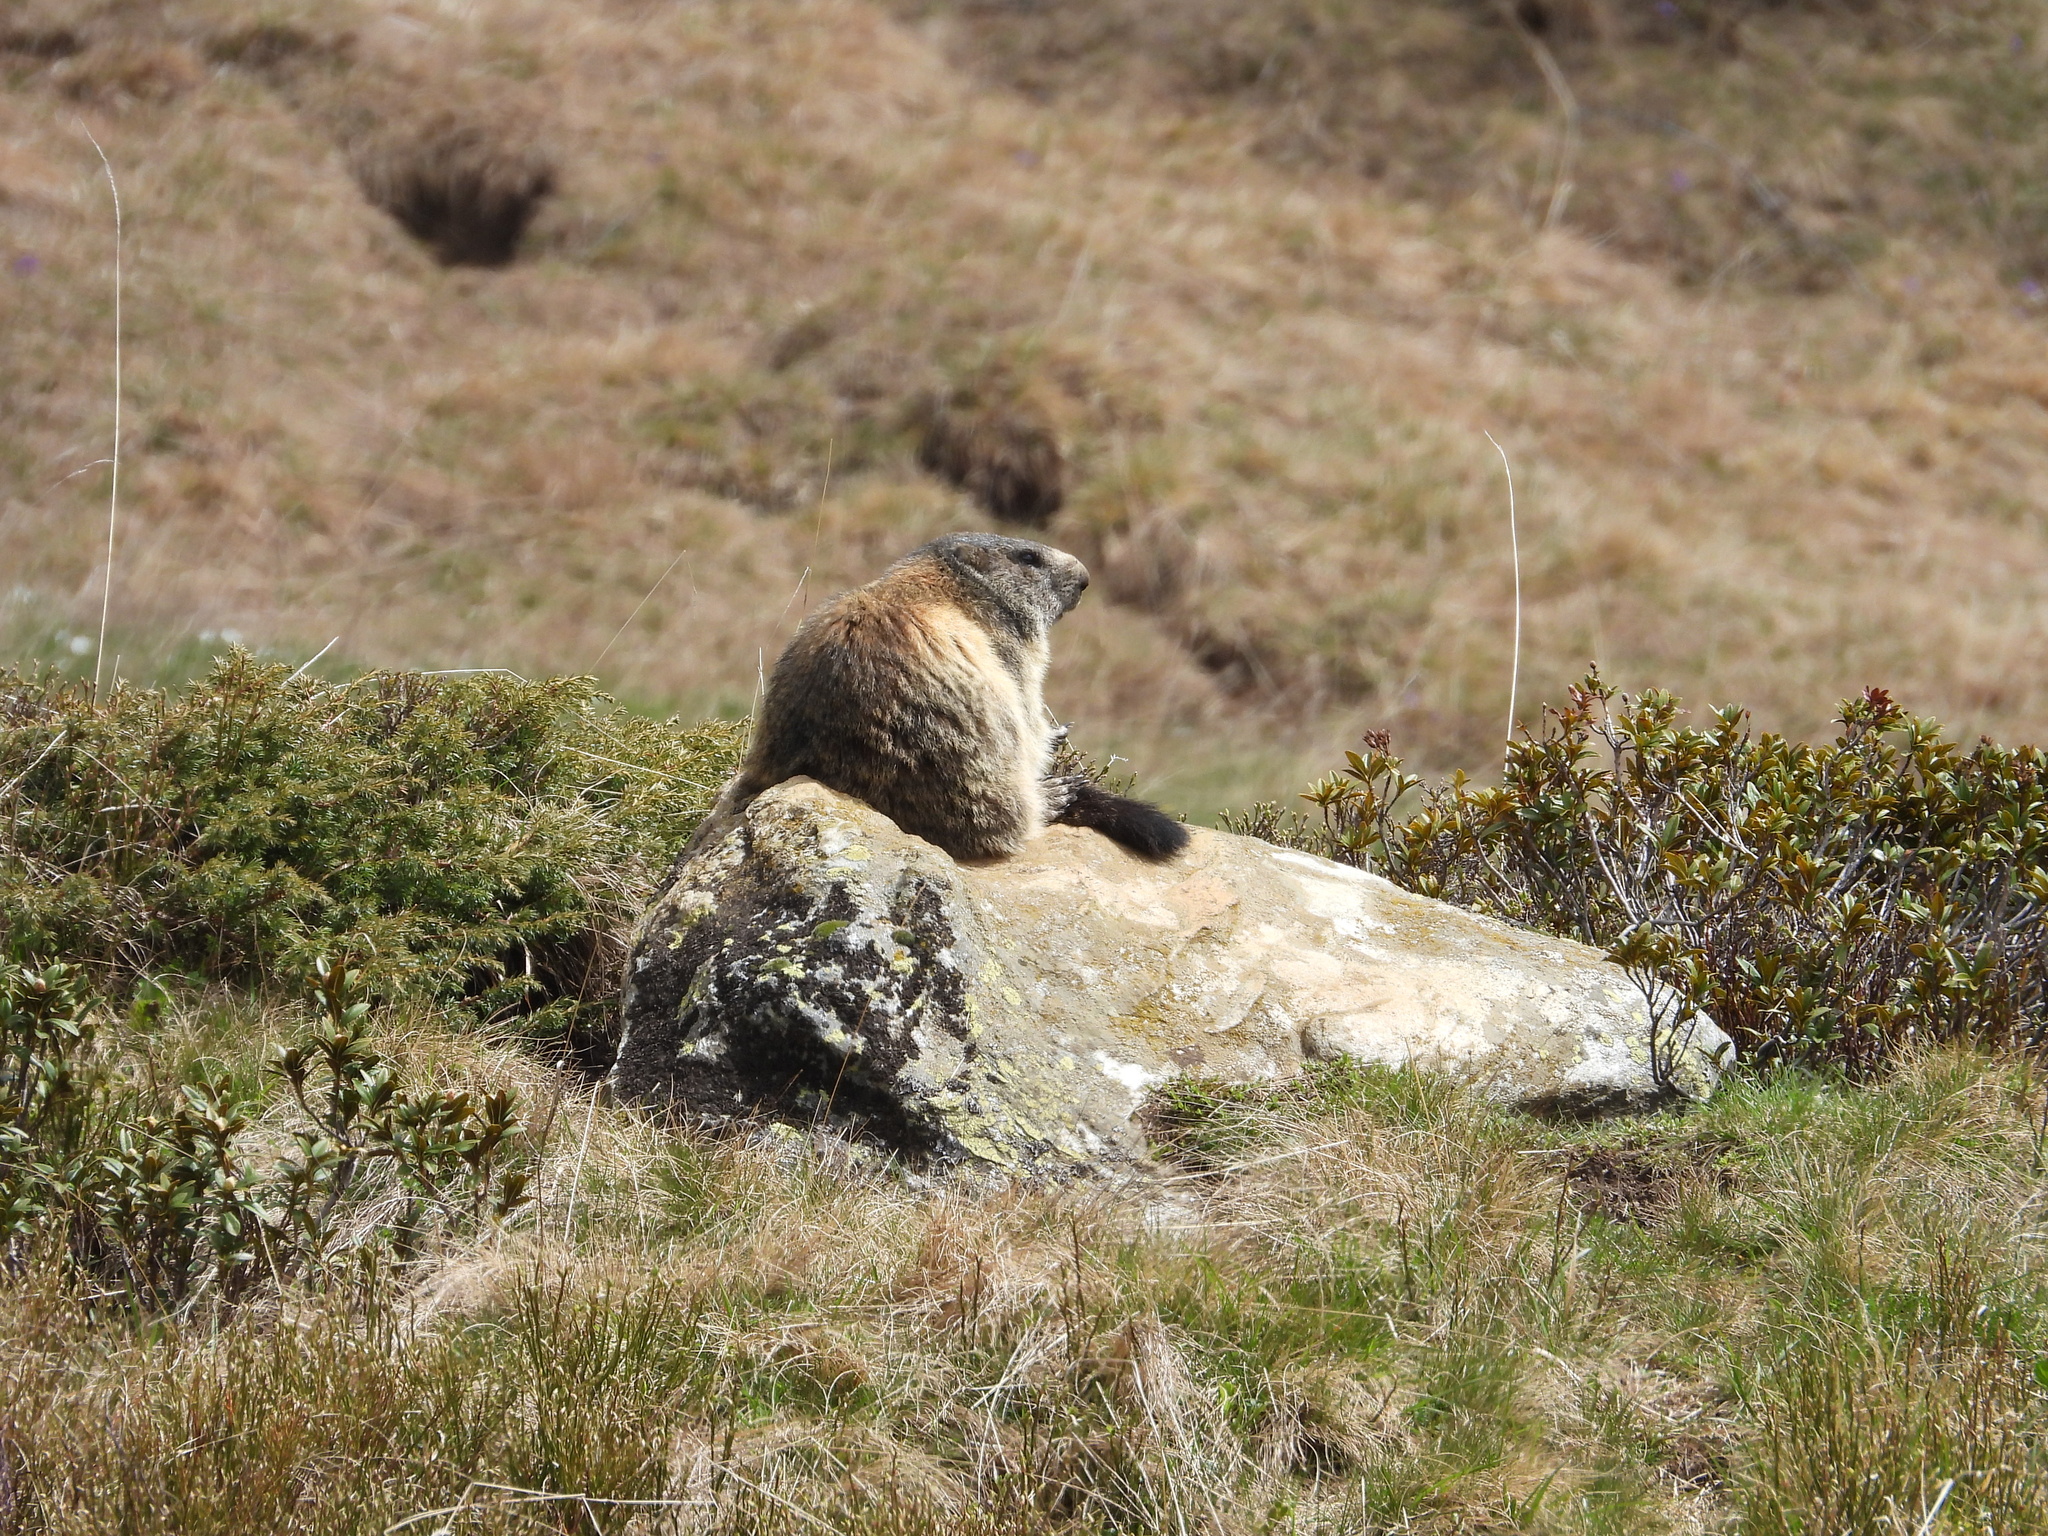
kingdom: Animalia
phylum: Chordata
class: Mammalia
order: Rodentia
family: Sciuridae
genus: Marmota
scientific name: Marmota marmota
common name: Alpine marmot
